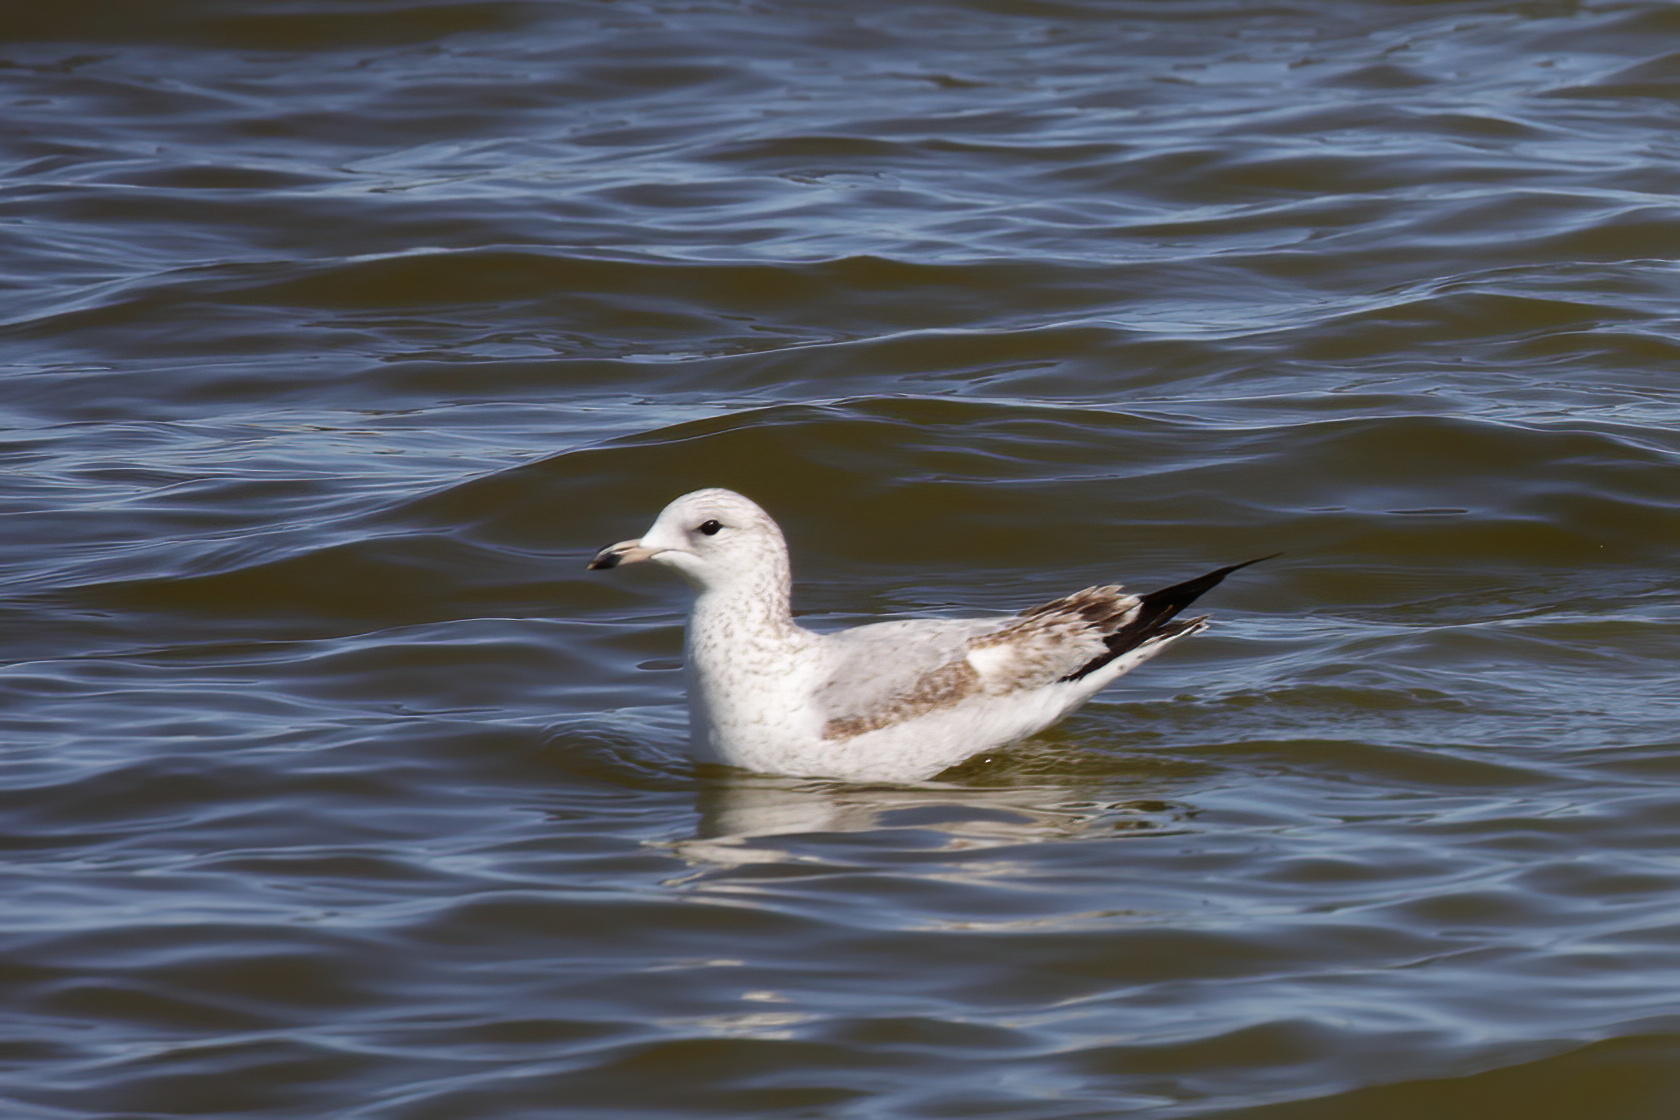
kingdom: Animalia
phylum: Chordata
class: Aves
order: Charadriiformes
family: Laridae
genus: Larus
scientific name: Larus delawarensis
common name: Ring-billed gull
